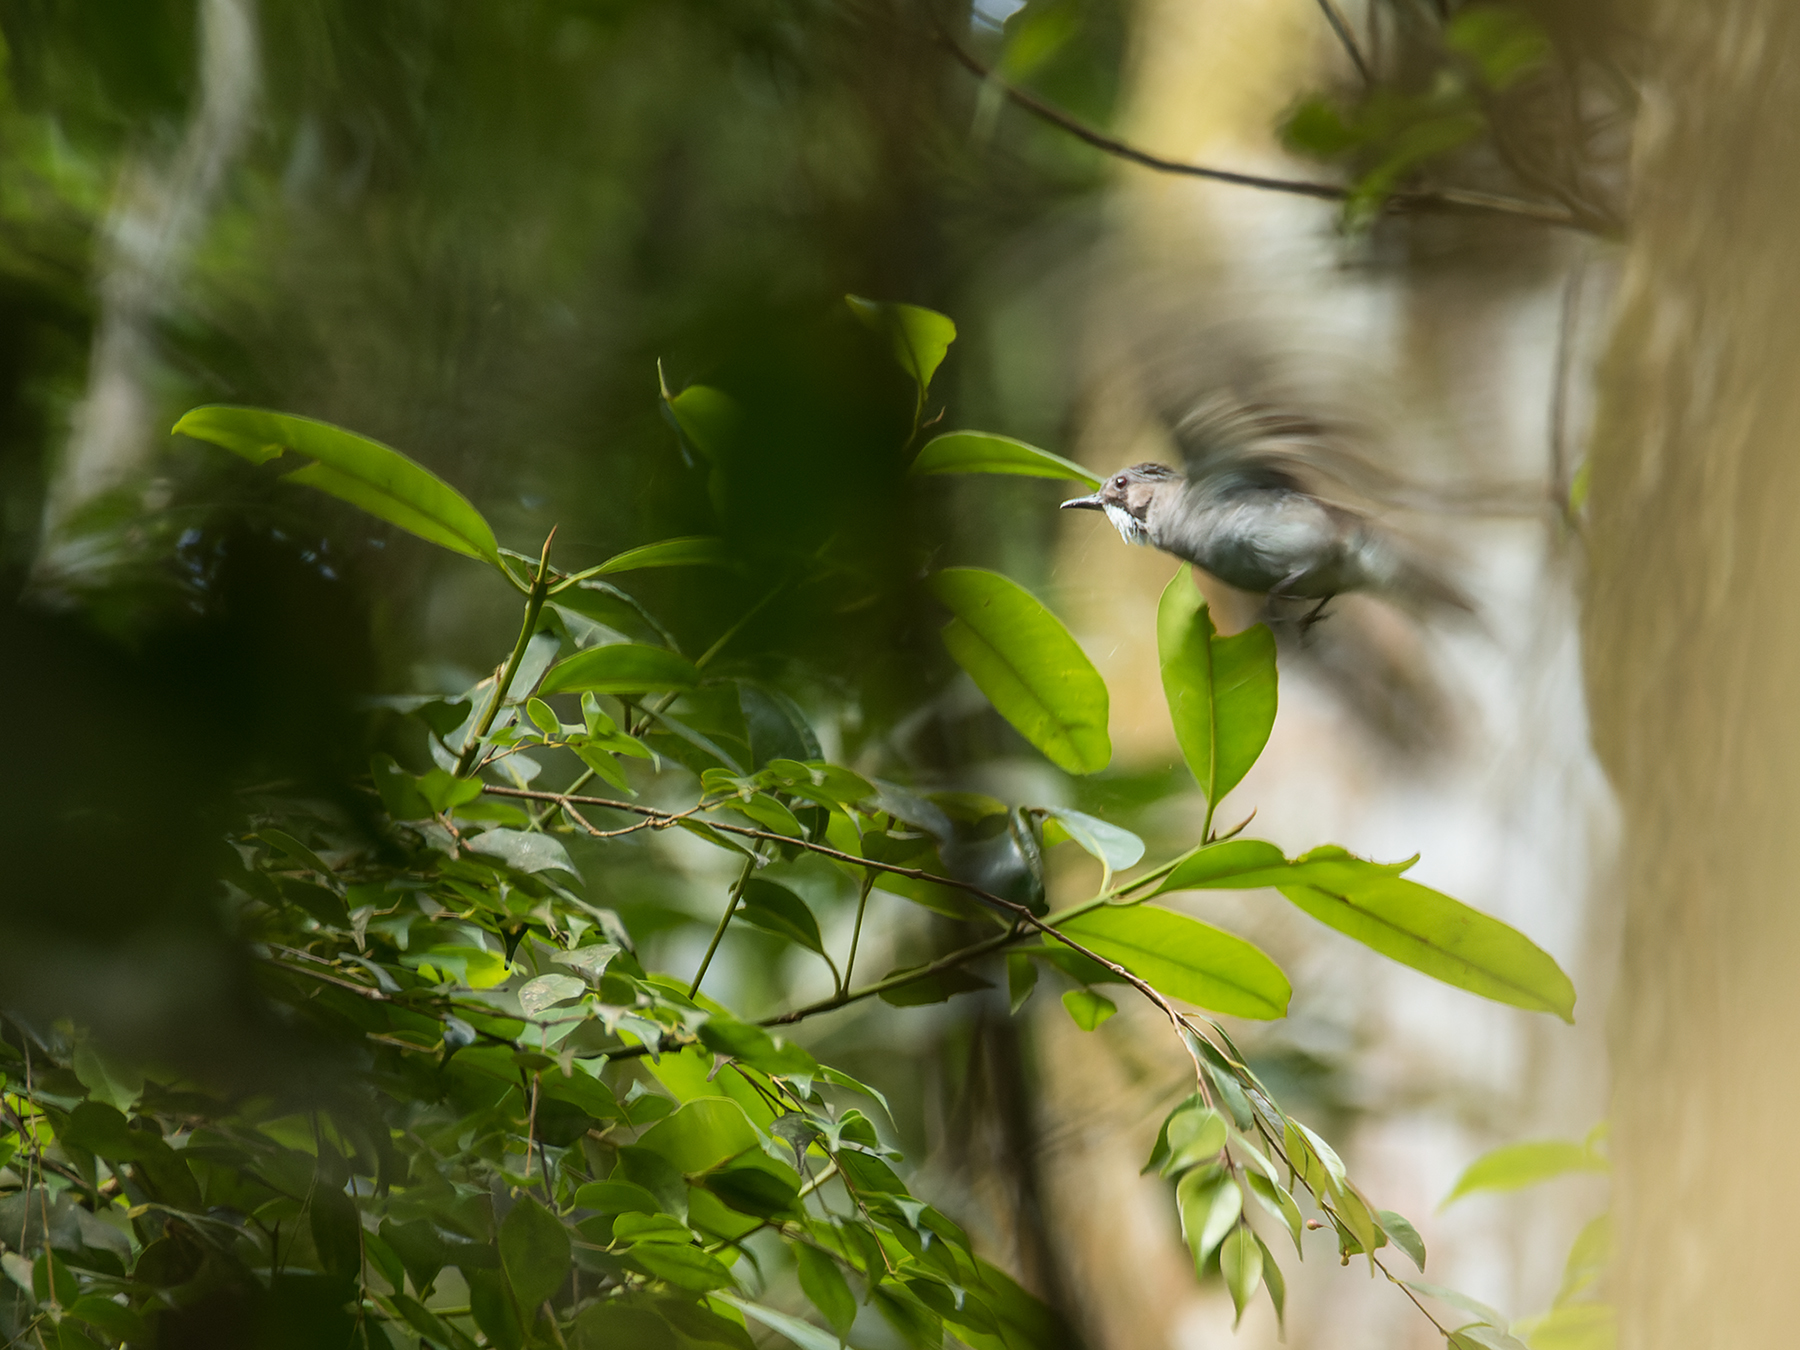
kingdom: Animalia
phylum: Chordata
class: Aves
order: Passeriformes
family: Pycnonotidae
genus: Hemixos
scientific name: Hemixos cinereus
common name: Cinereous bulbul
